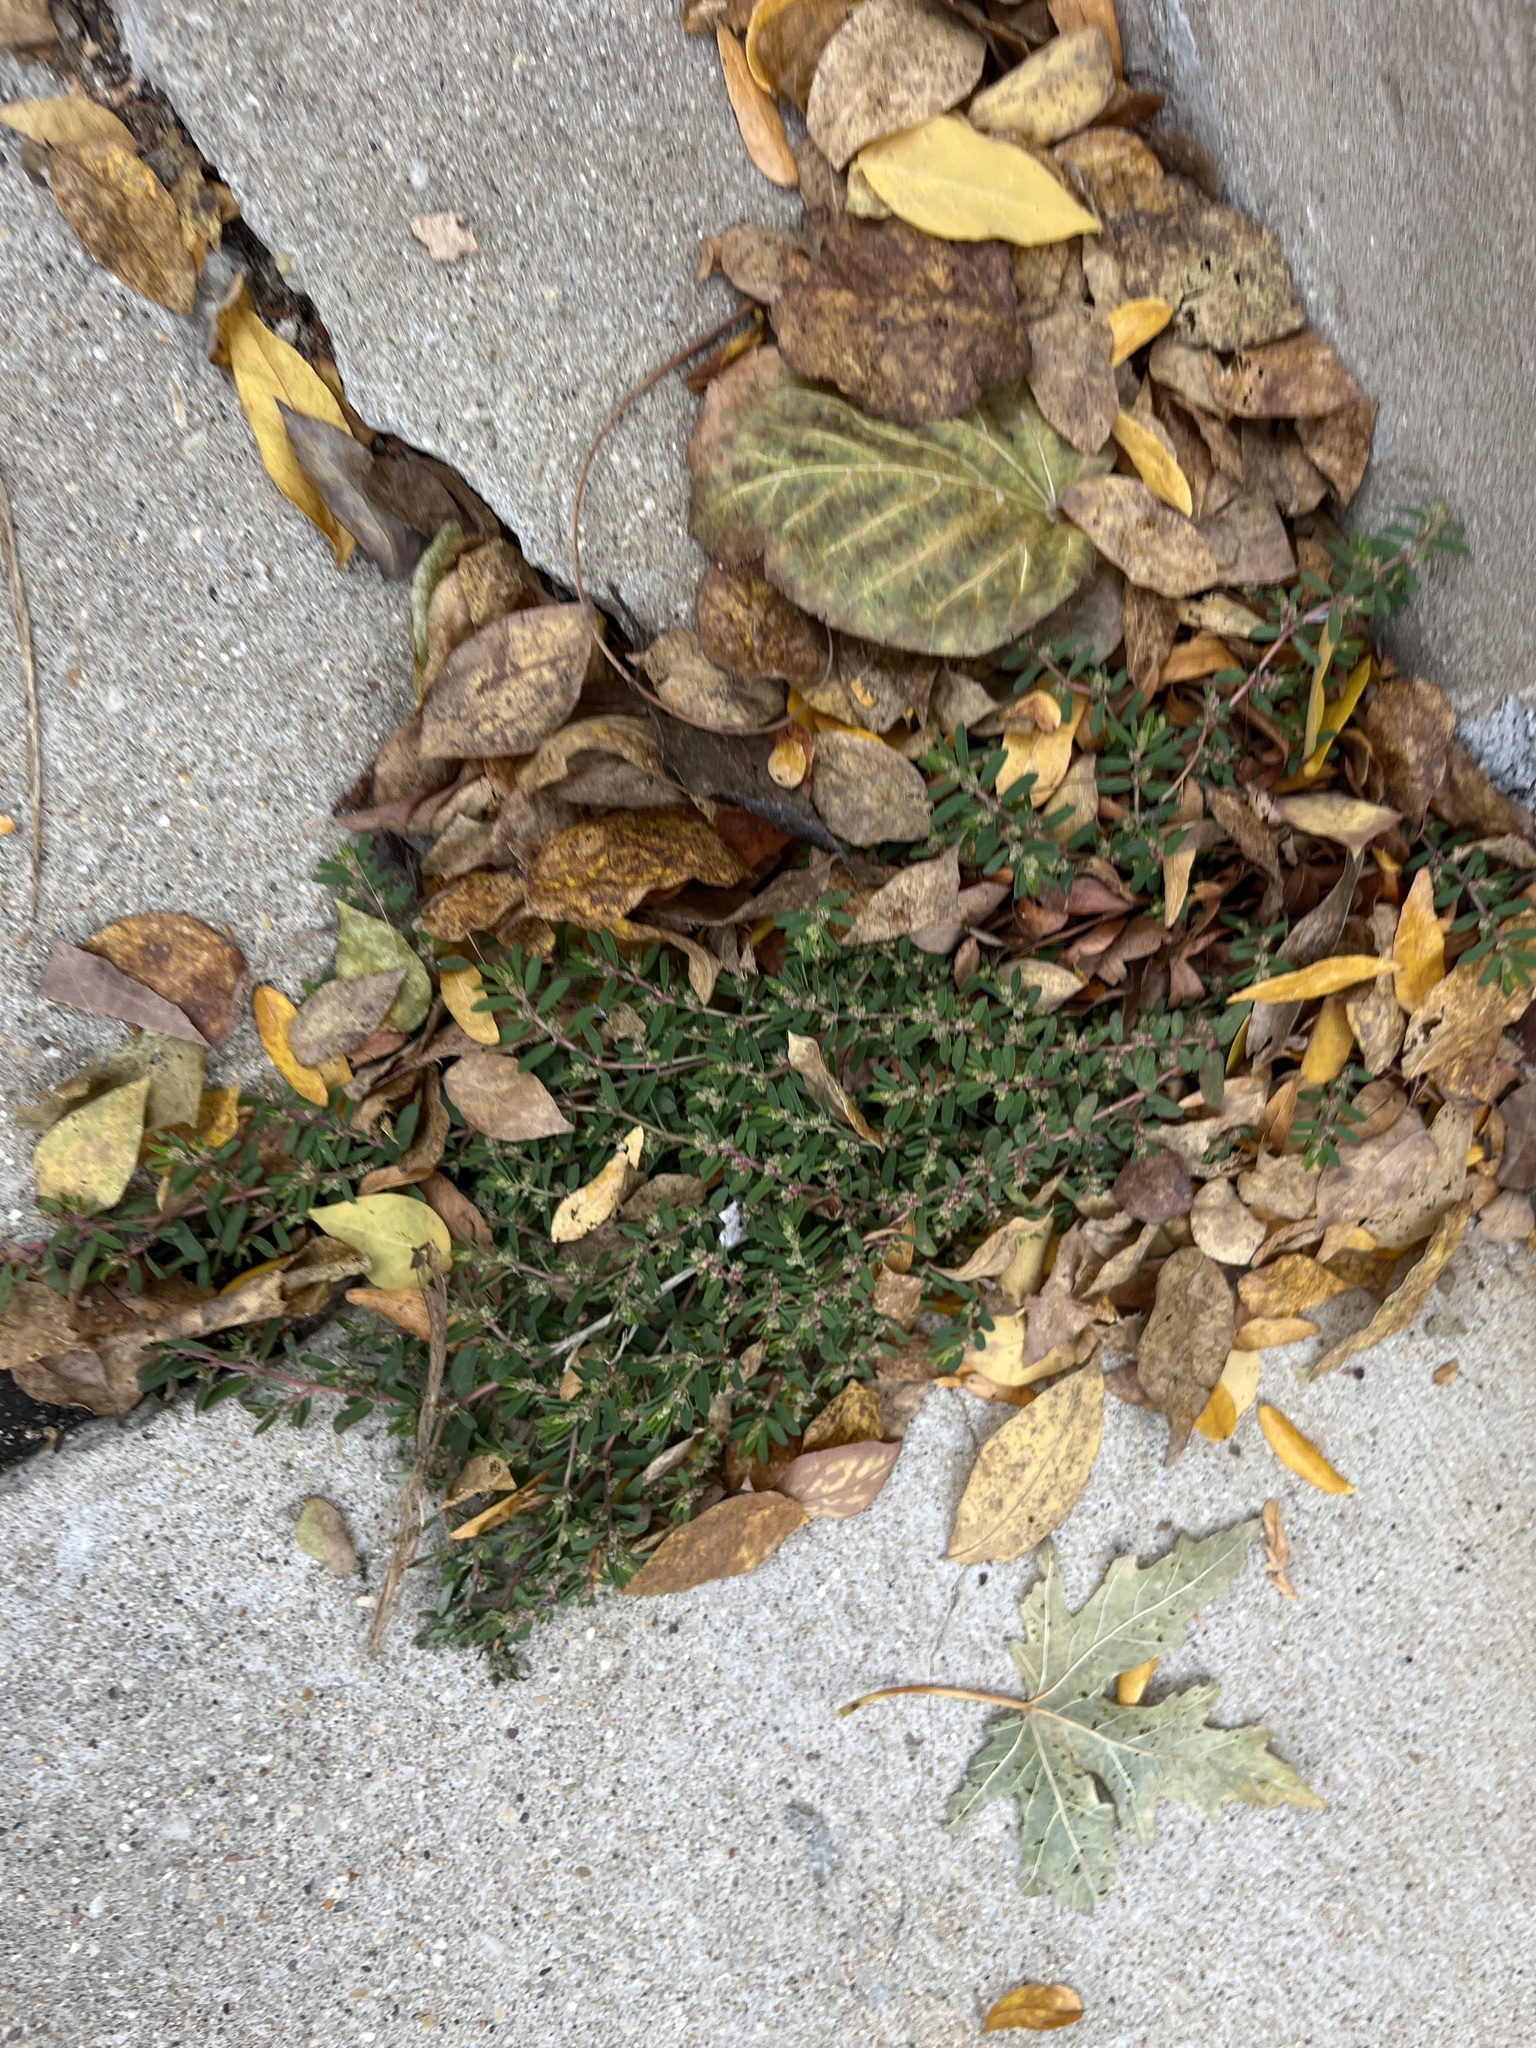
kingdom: Plantae
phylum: Tracheophyta
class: Magnoliopsida
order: Malpighiales
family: Euphorbiaceae
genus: Euphorbia
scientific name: Euphorbia maculata
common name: Spotted spurge
